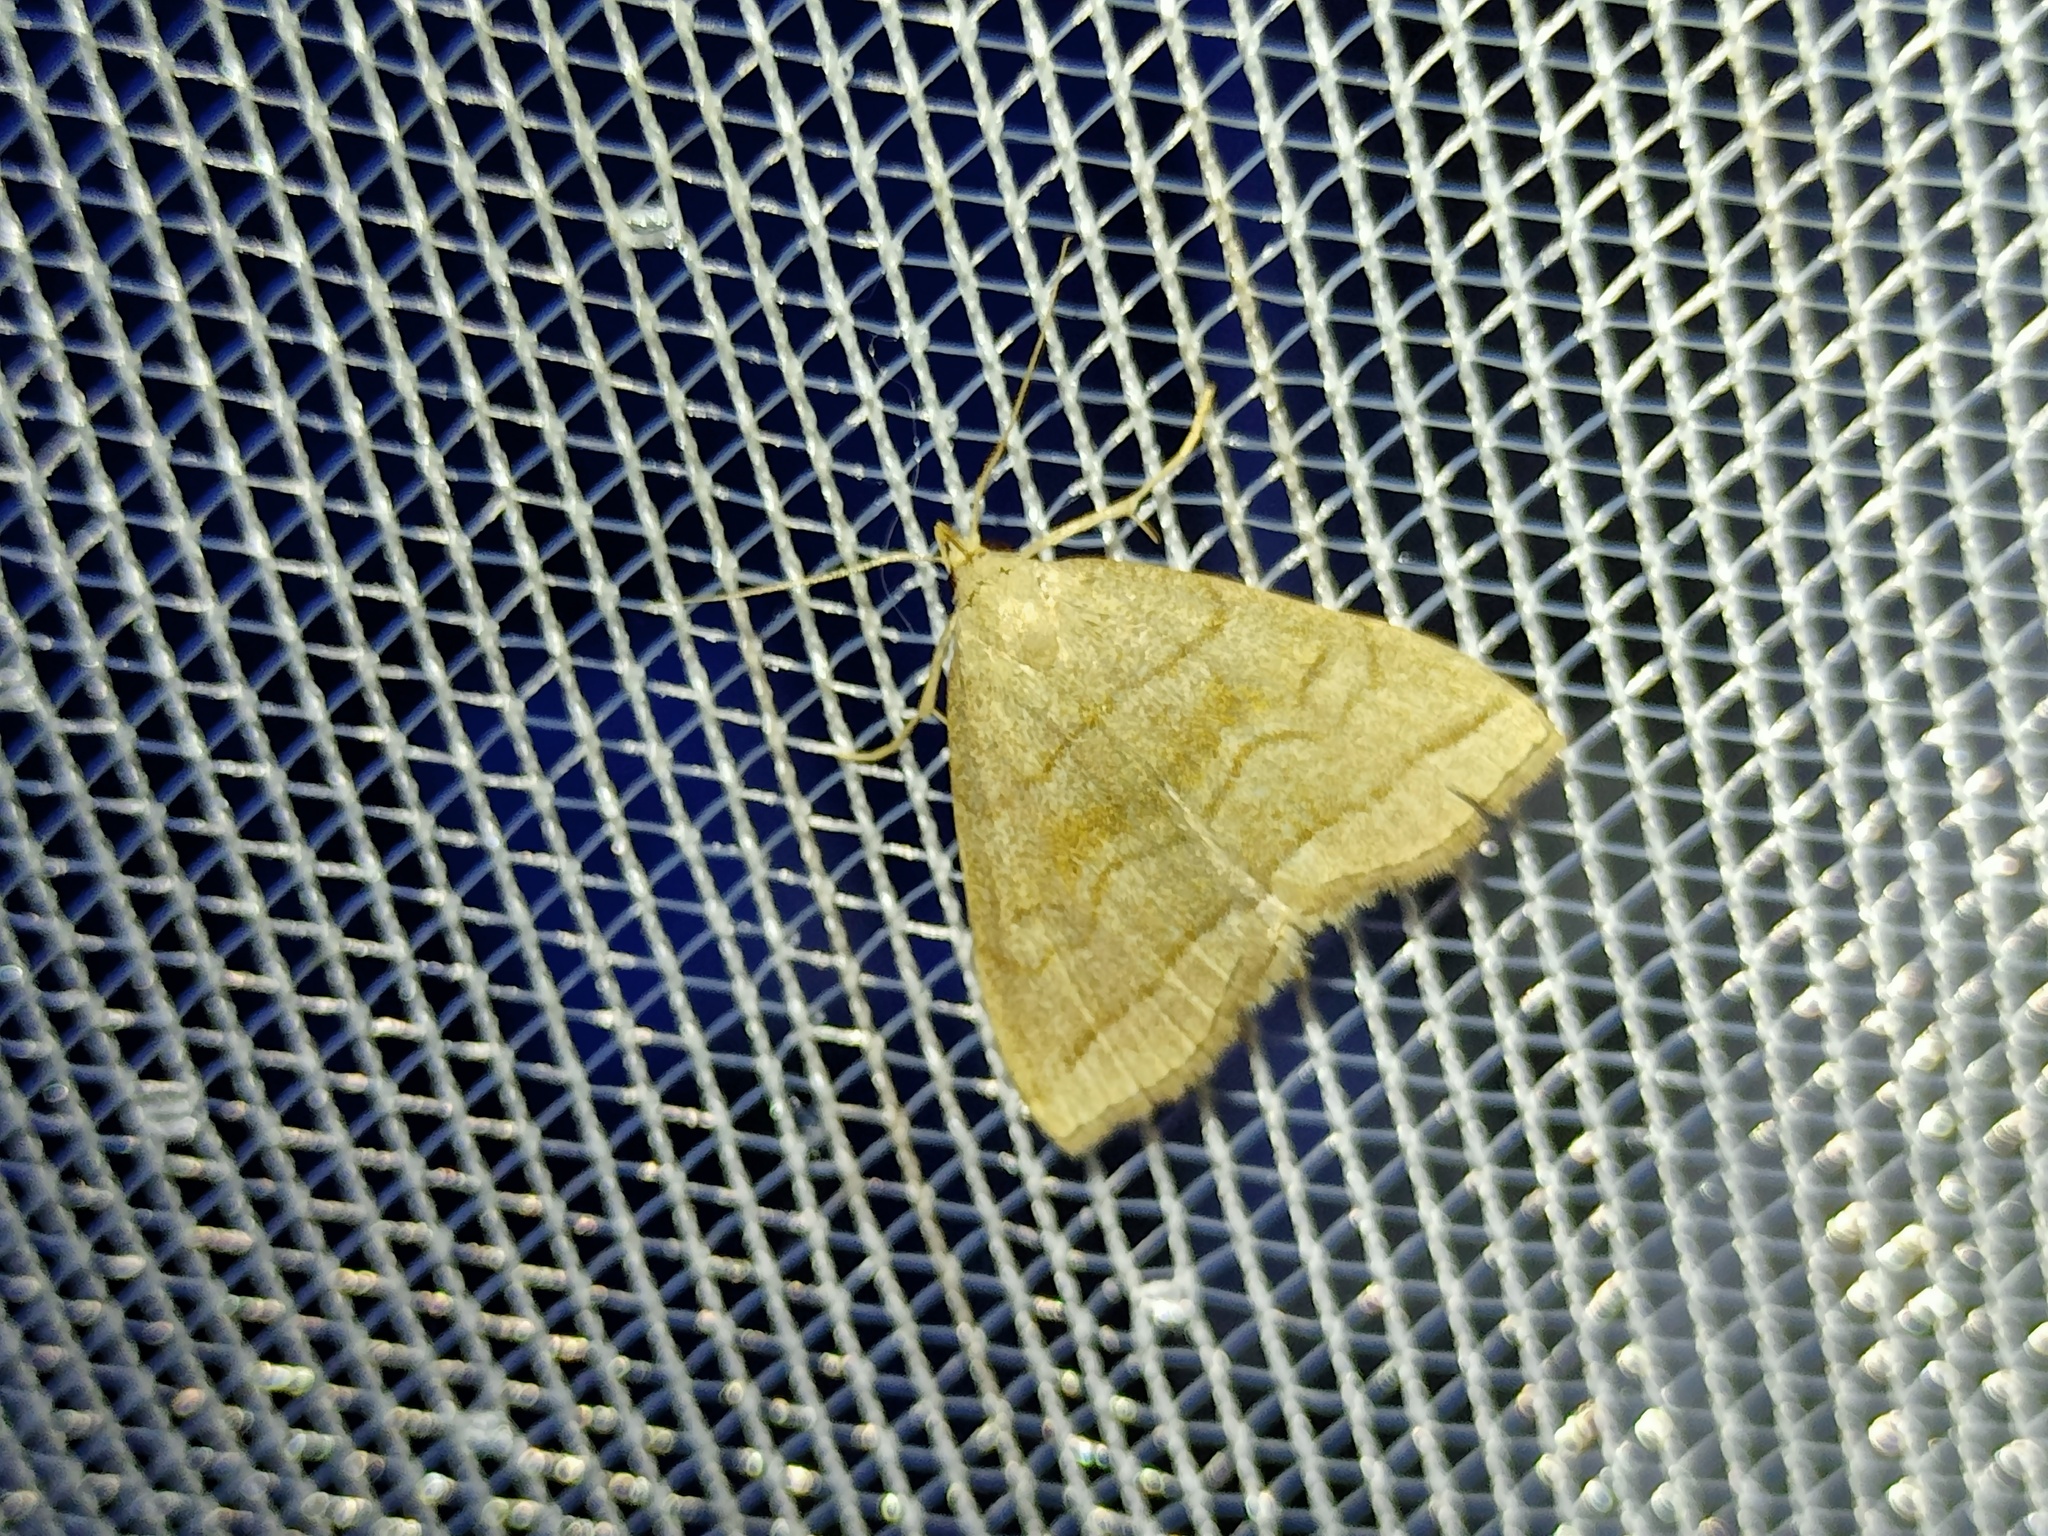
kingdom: Animalia
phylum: Arthropoda
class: Insecta
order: Lepidoptera
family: Erebidae
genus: Herminia
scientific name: Herminia tarsicrinalis
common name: Shaded fan-foot
